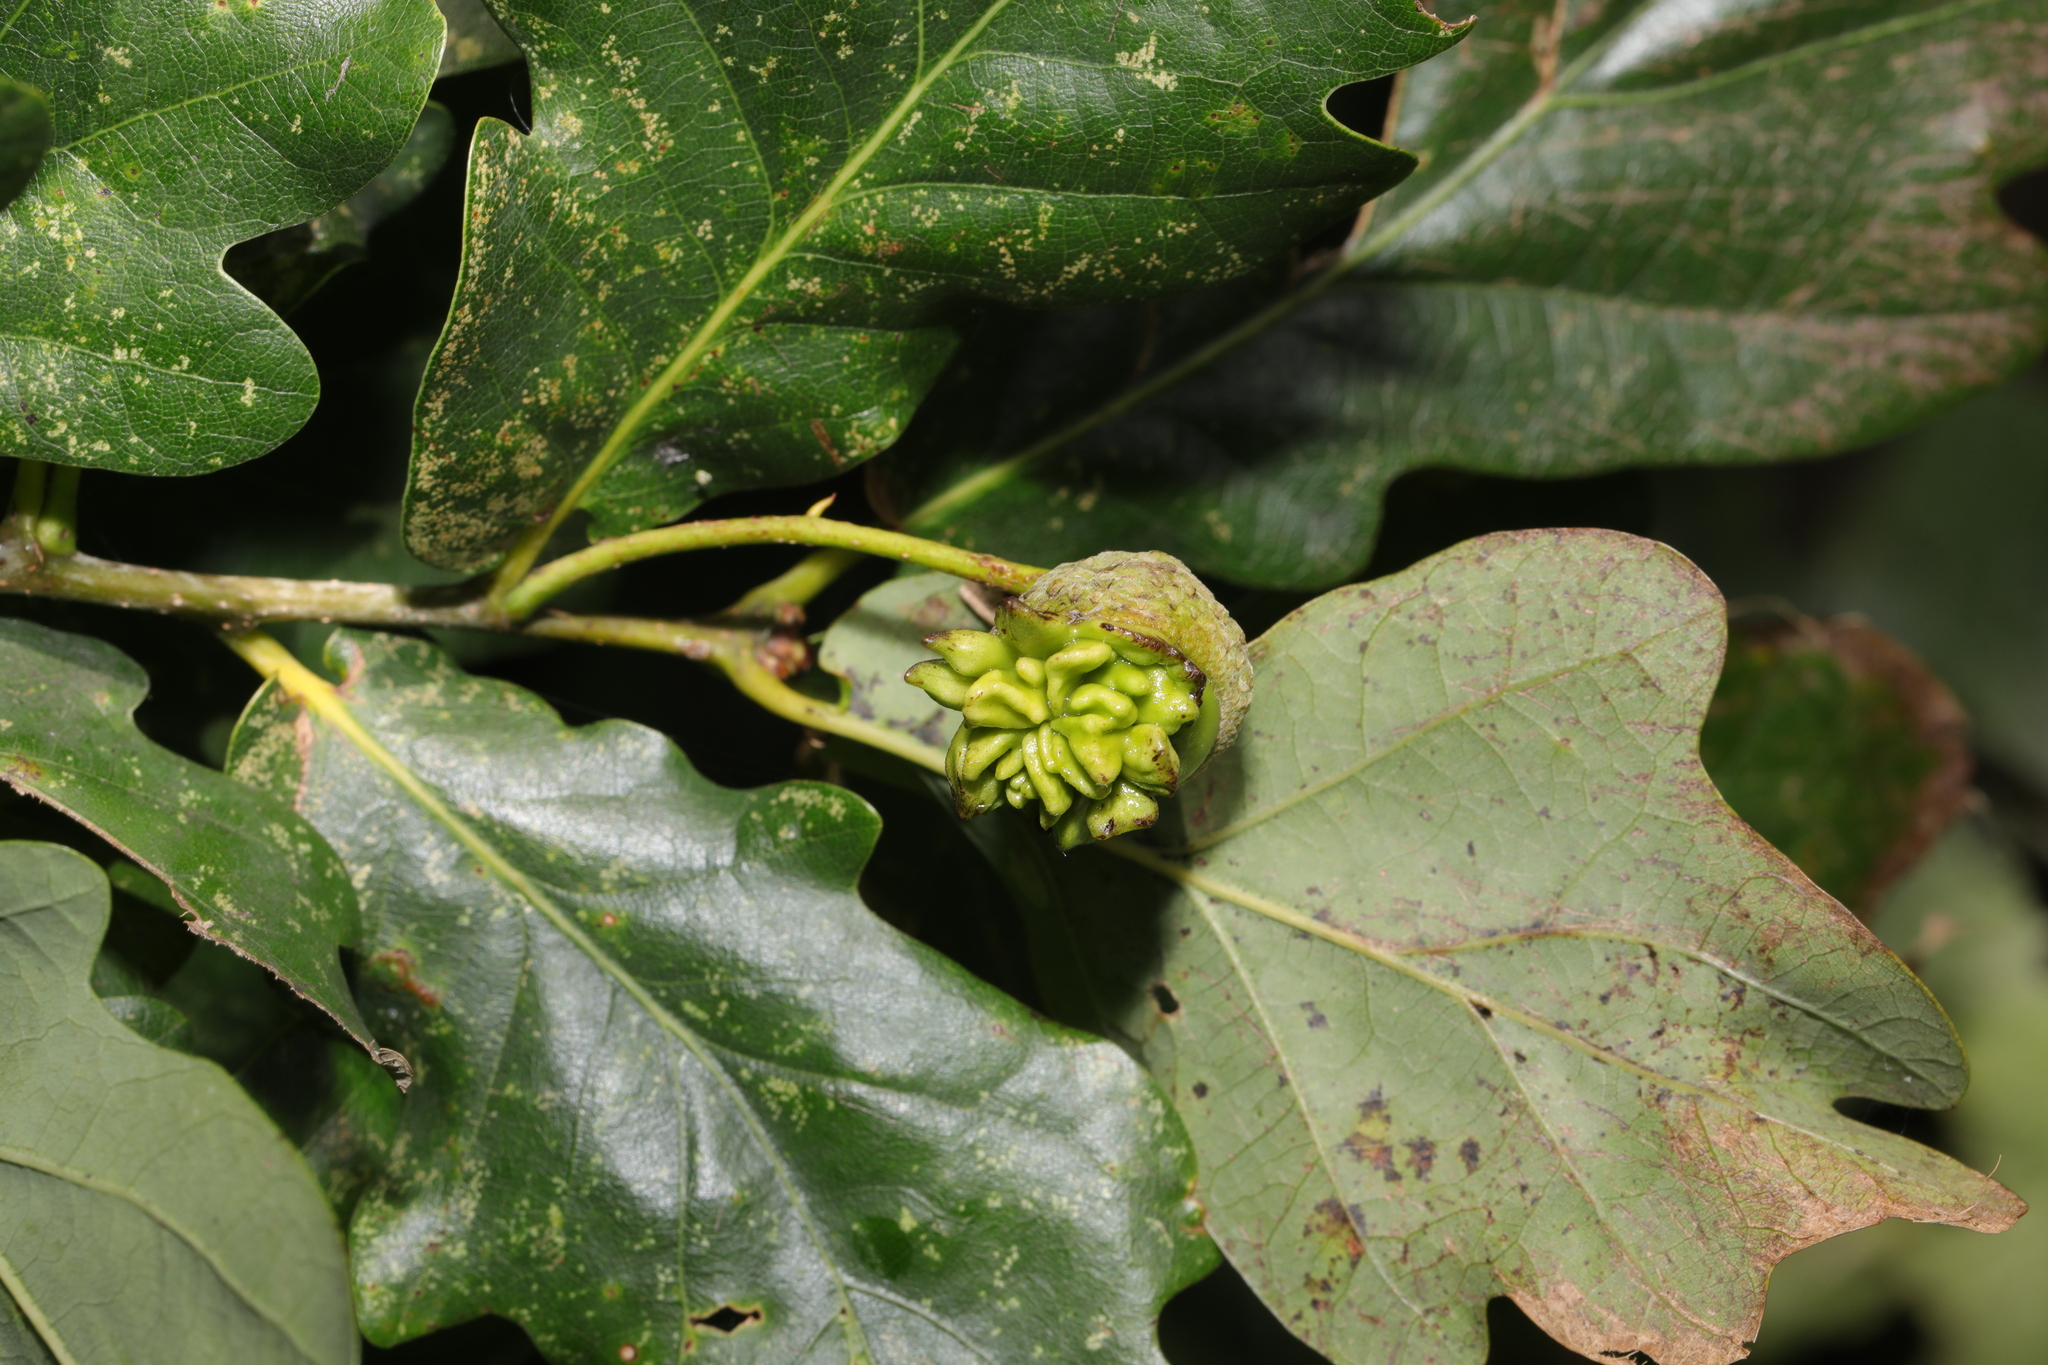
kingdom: Animalia
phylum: Arthropoda
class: Insecta
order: Hymenoptera
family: Cynipidae
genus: Andricus
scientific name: Andricus quercuscalicis
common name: Knopper gall
